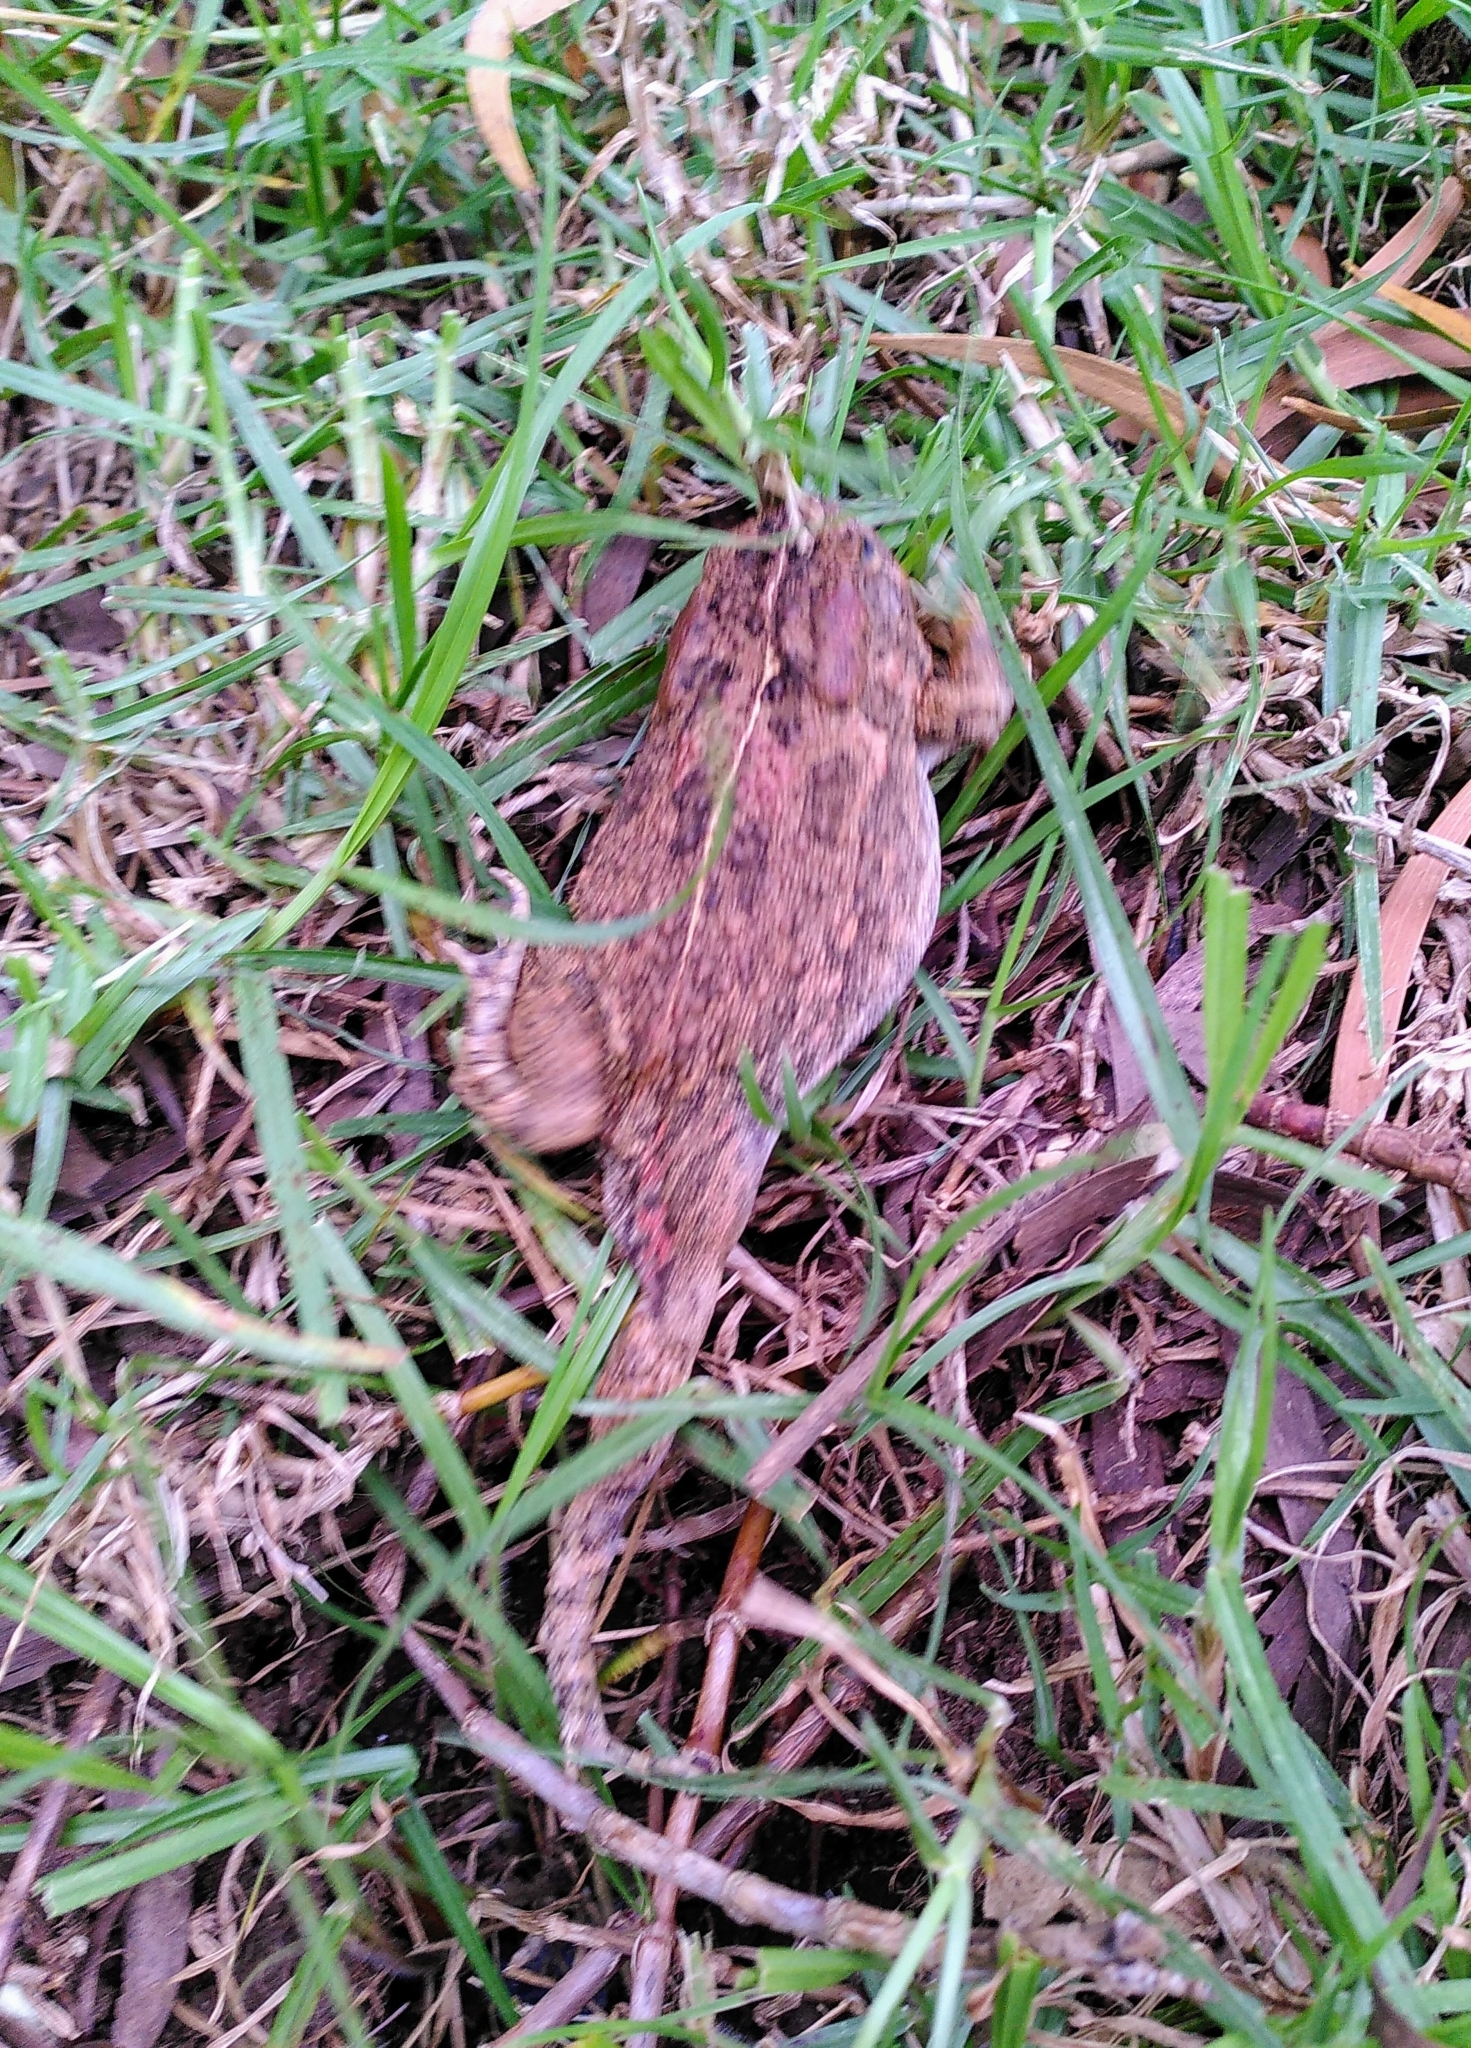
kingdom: Animalia
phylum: Chordata
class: Amphibia
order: Anura
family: Bufonidae
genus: Sclerophrys
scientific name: Sclerophrys gutturalis
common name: African common toad
